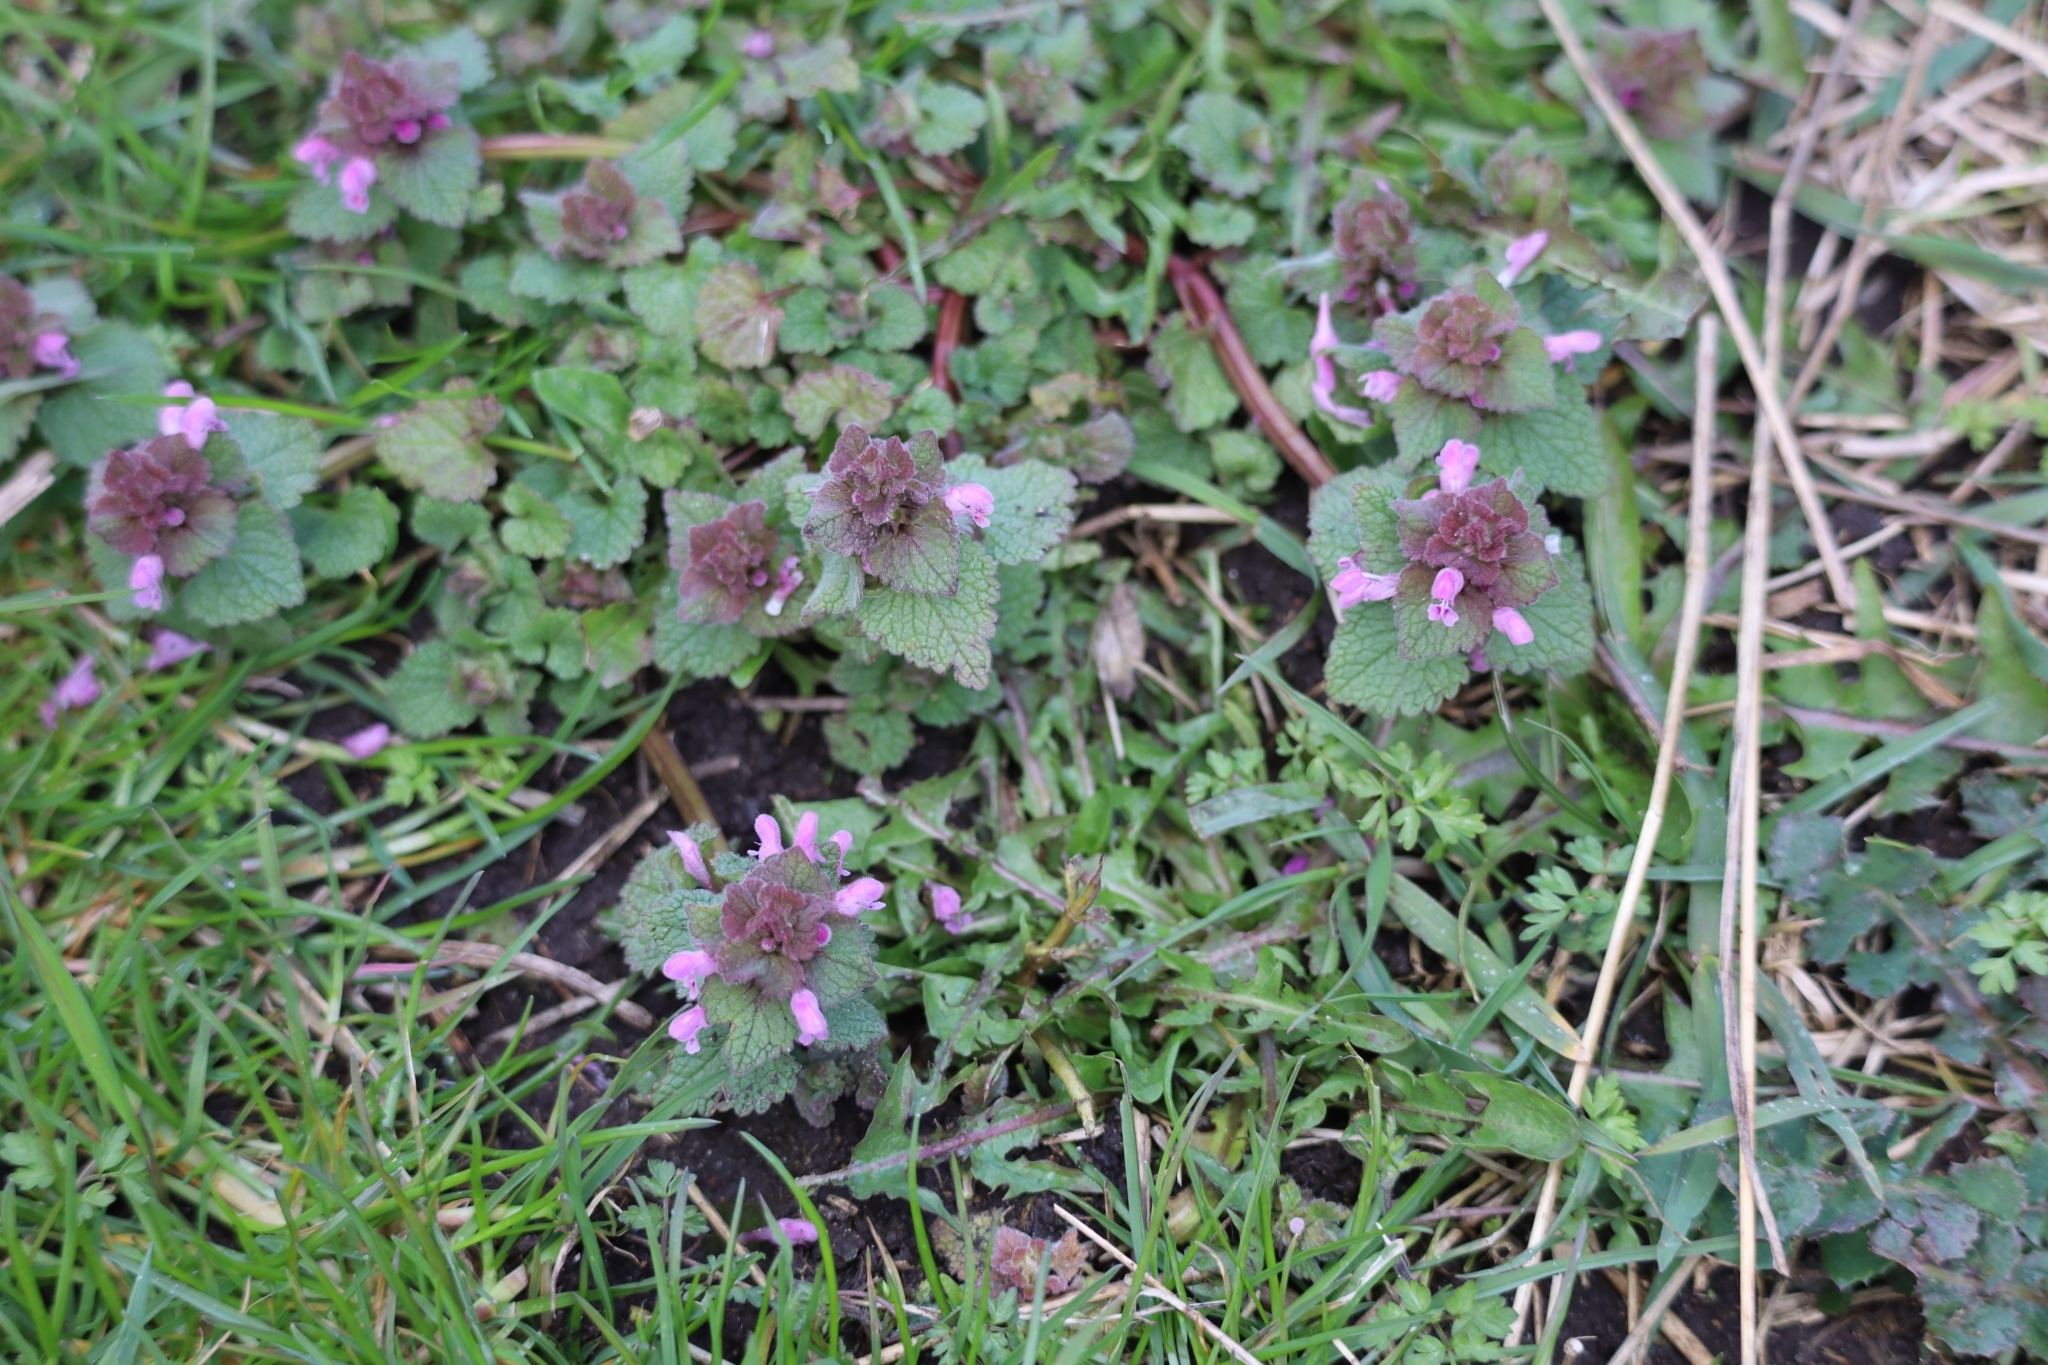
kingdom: Plantae
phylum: Tracheophyta
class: Magnoliopsida
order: Lamiales
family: Lamiaceae
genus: Lamium
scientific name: Lamium purpureum
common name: Red dead-nettle
